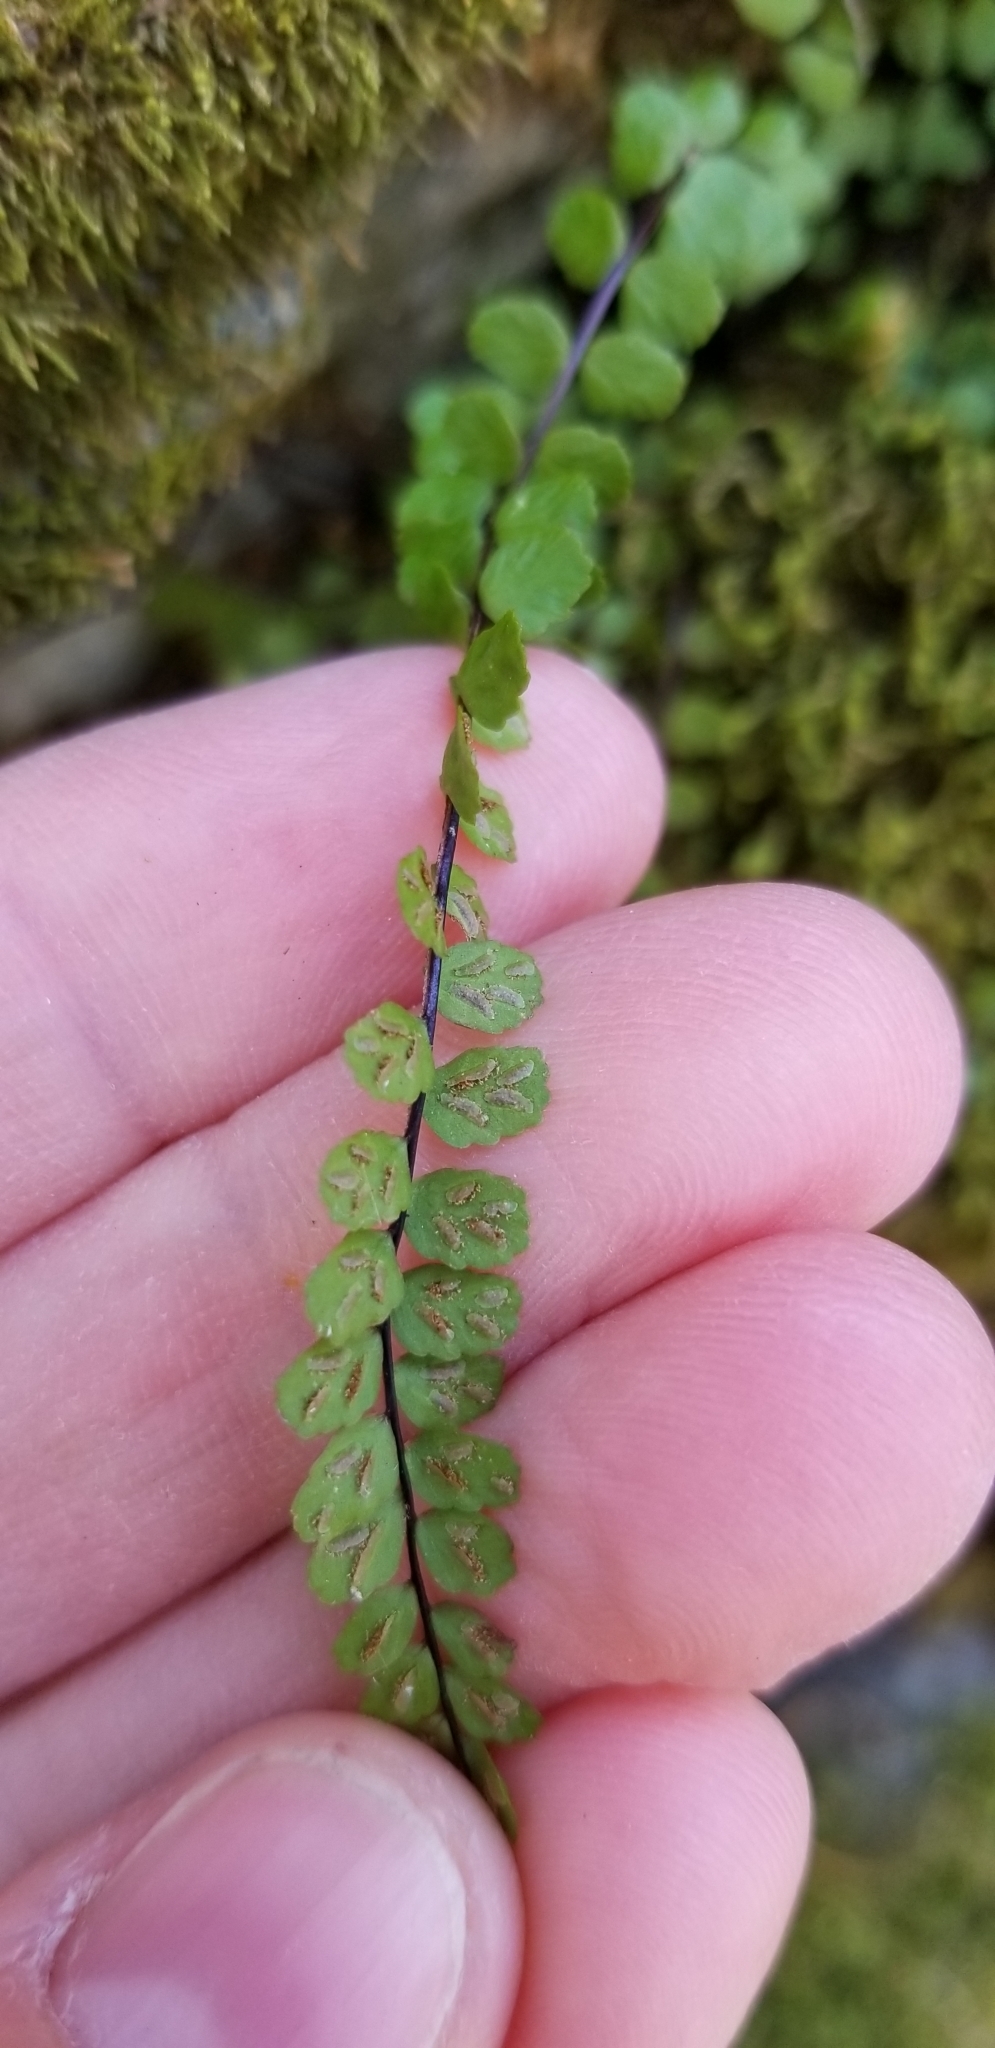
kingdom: Plantae
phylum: Tracheophyta
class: Polypodiopsida
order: Polypodiales
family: Aspleniaceae
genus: Asplenium
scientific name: Asplenium trichomanes
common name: Maidenhair spleenwort
